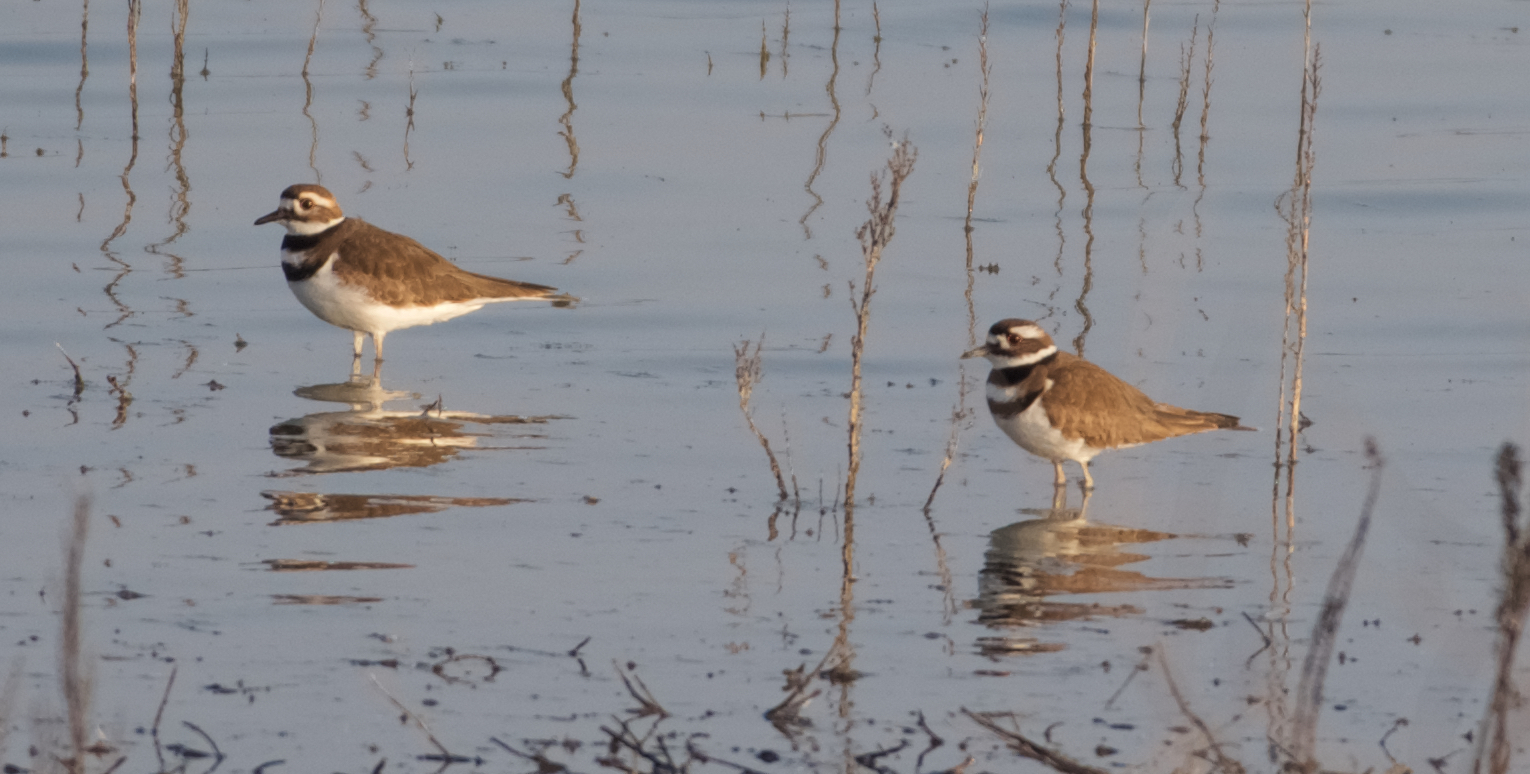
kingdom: Animalia
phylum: Chordata
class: Aves
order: Charadriiformes
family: Charadriidae
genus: Charadrius
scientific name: Charadrius vociferus
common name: Killdeer
